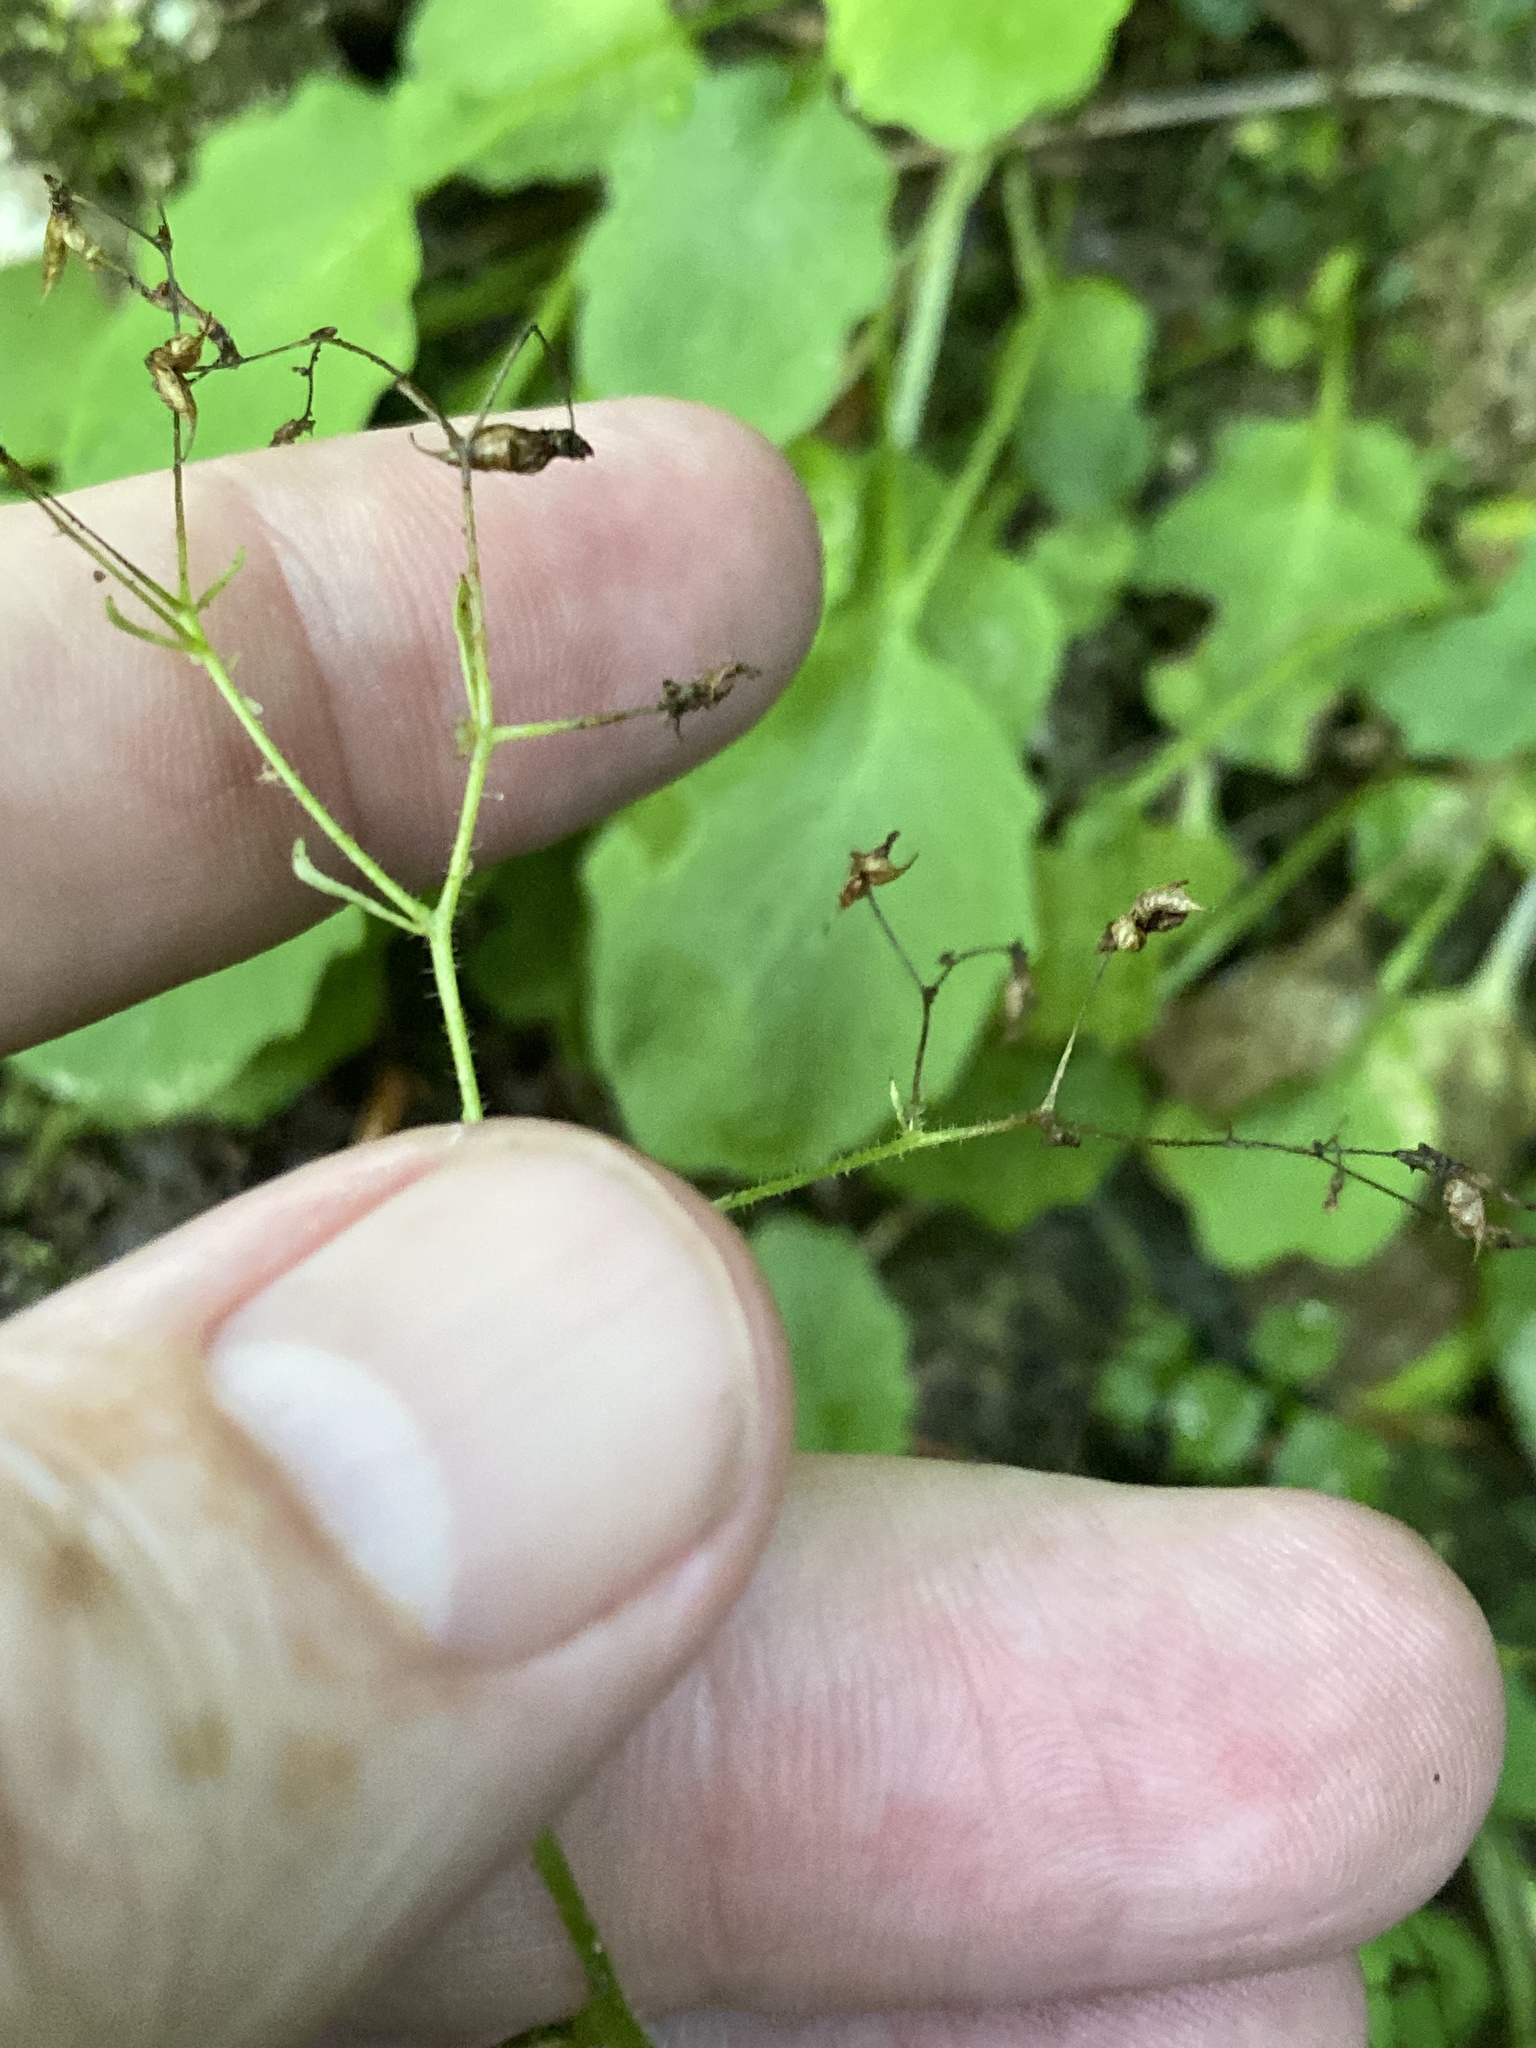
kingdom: Plantae
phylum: Tracheophyta
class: Magnoliopsida
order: Saxifragales
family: Saxifragaceae
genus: Micranthes
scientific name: Micranthes caroliniana
